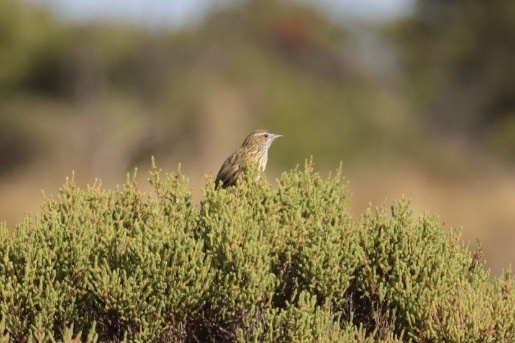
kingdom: Animalia
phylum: Chordata
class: Aves
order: Passeriformes
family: Acanthizidae
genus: Calamanthus
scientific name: Calamanthus fuliginosus
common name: Striated fieldwren
